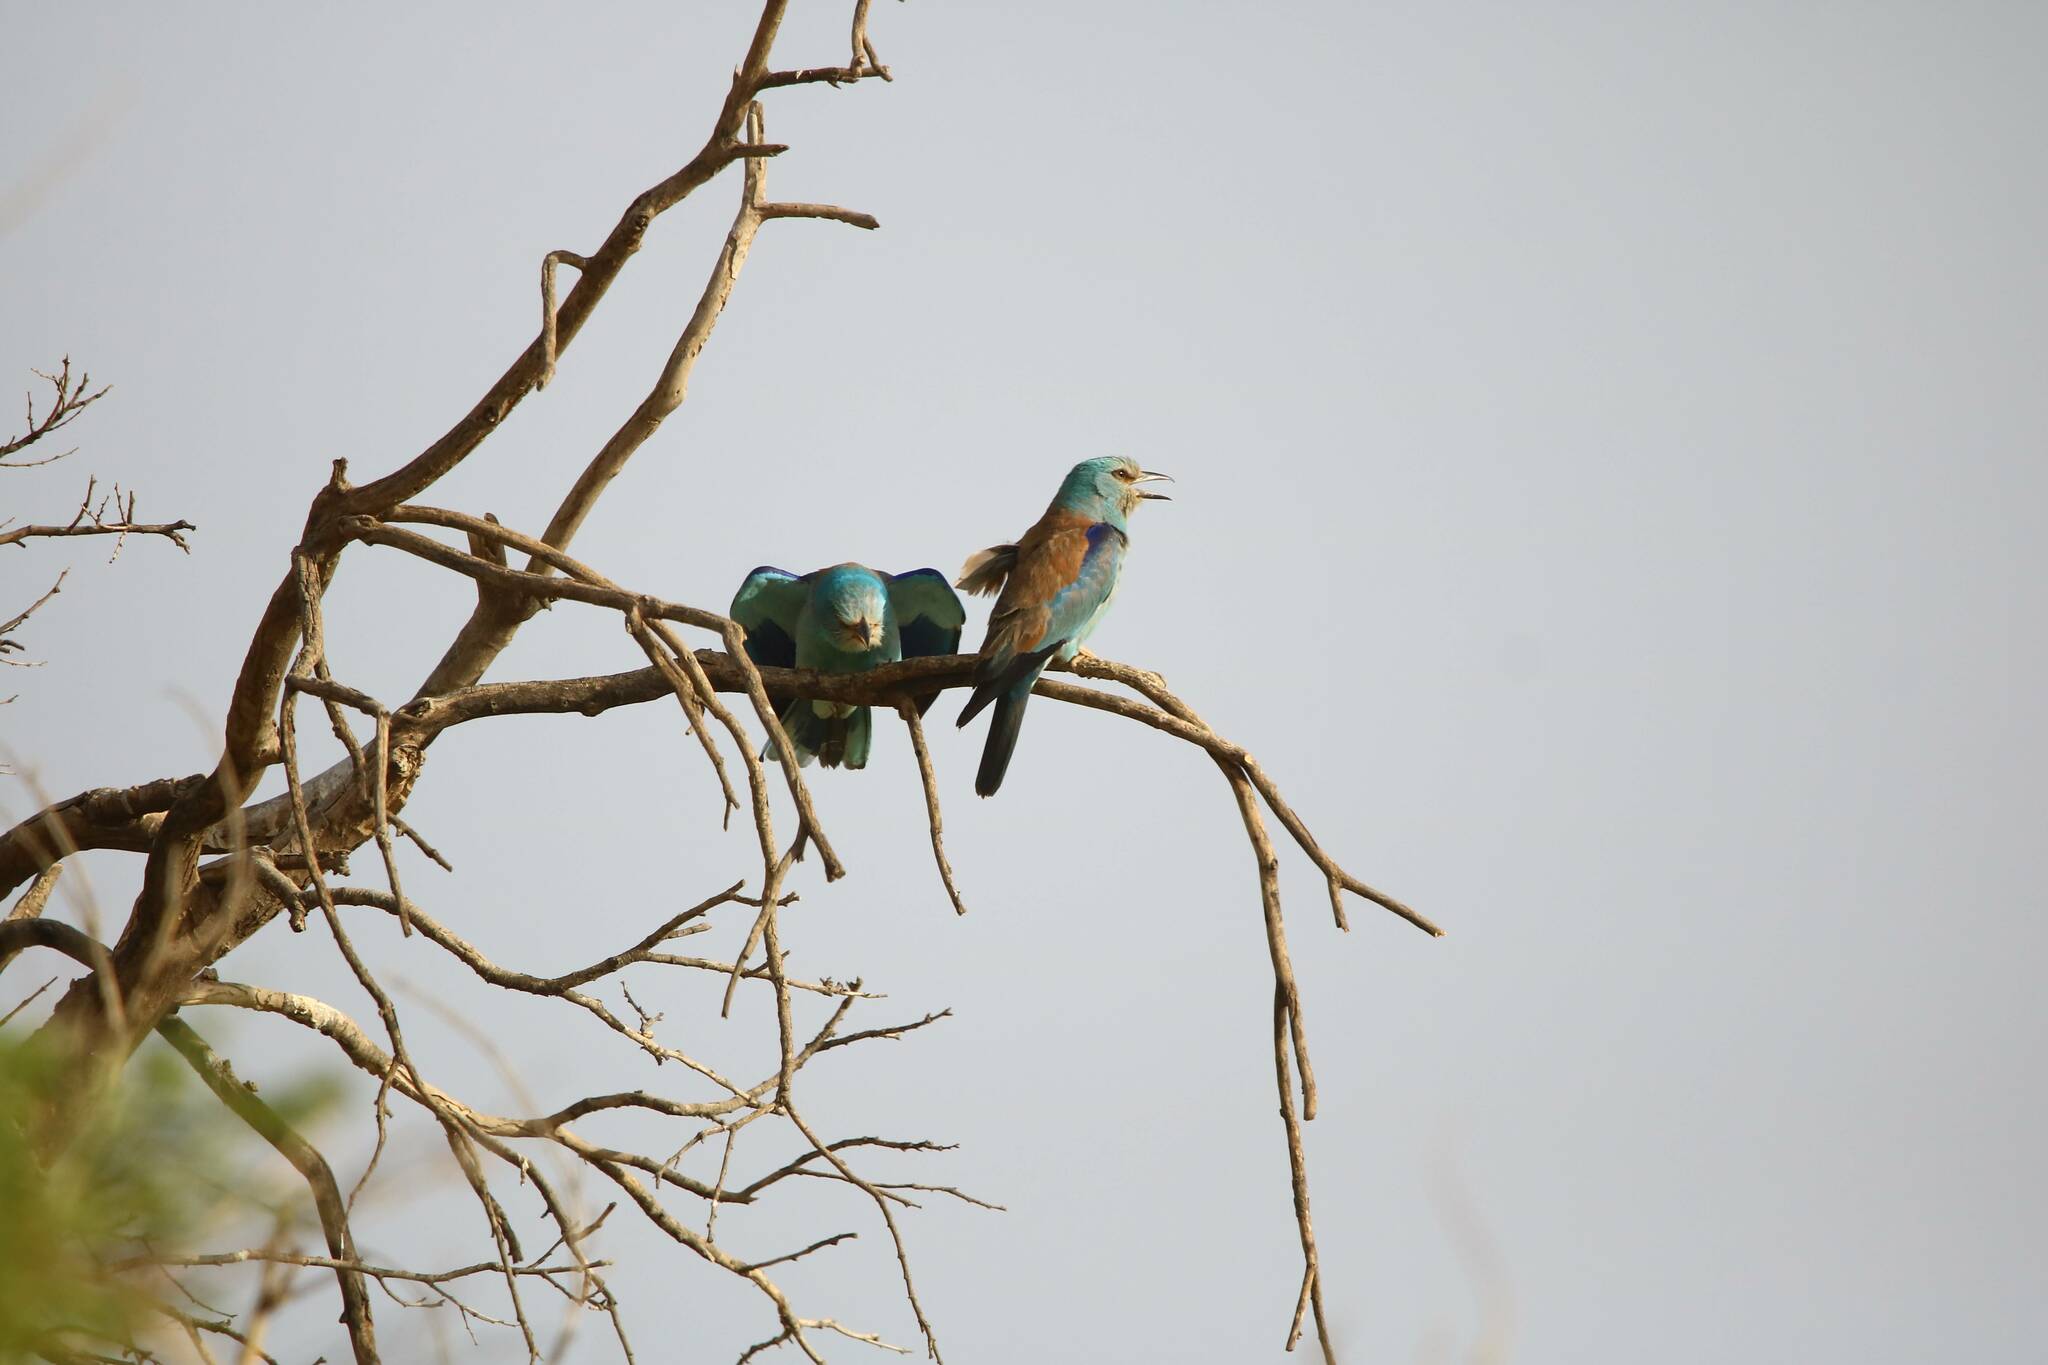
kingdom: Animalia
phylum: Chordata
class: Aves
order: Coraciiformes
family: Coraciidae
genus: Coracias
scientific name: Coracias garrulus
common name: European roller
